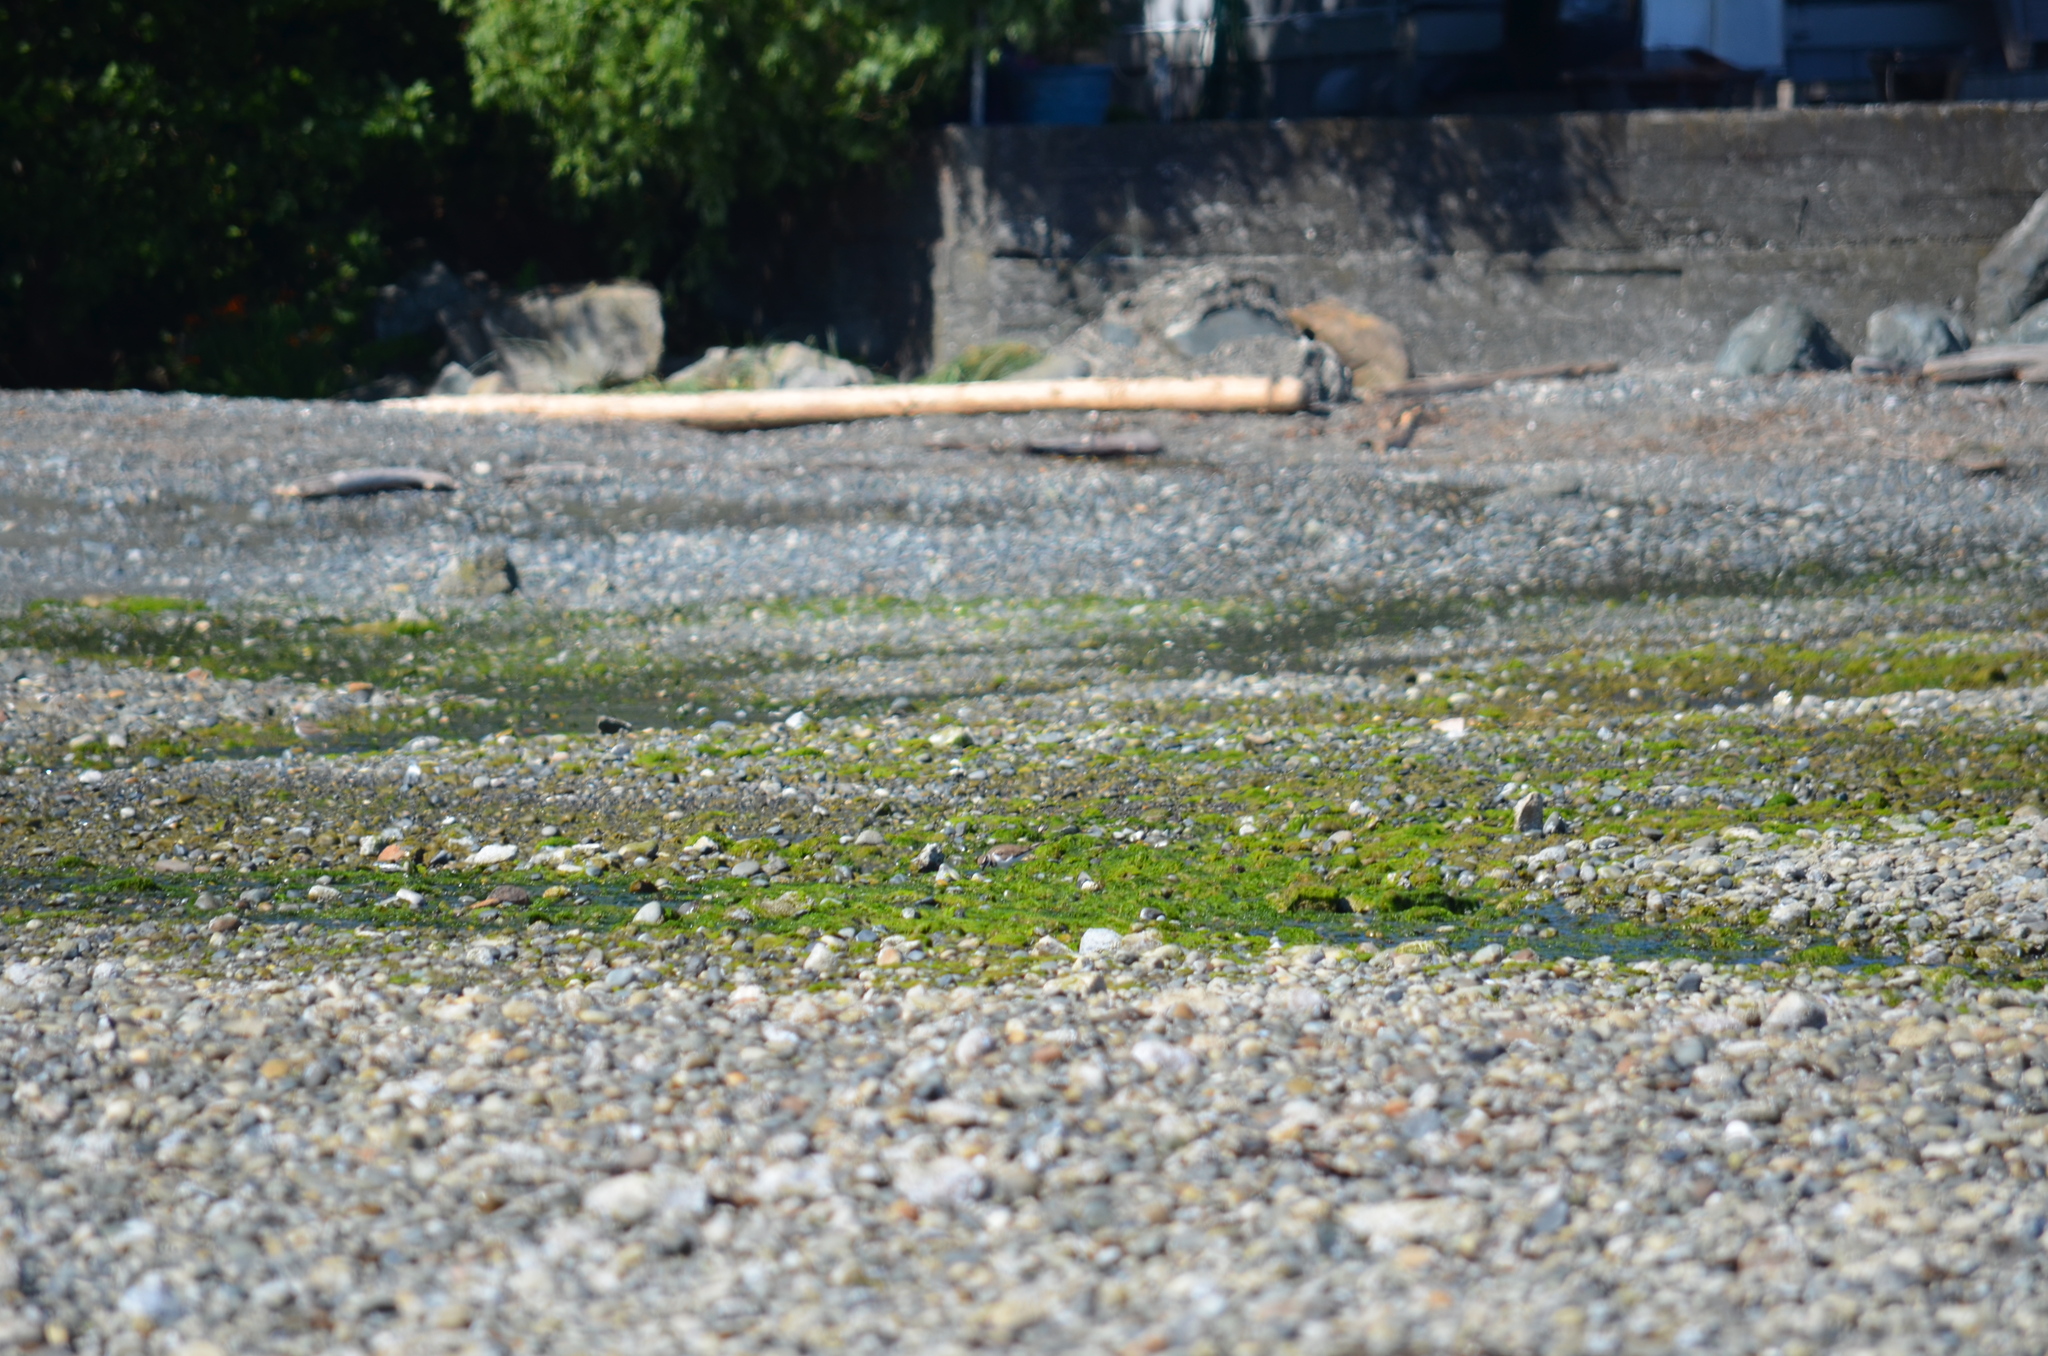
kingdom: Animalia
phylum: Chordata
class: Aves
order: Charadriiformes
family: Charadriidae
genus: Charadrius
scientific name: Charadrius vociferus
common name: Killdeer
